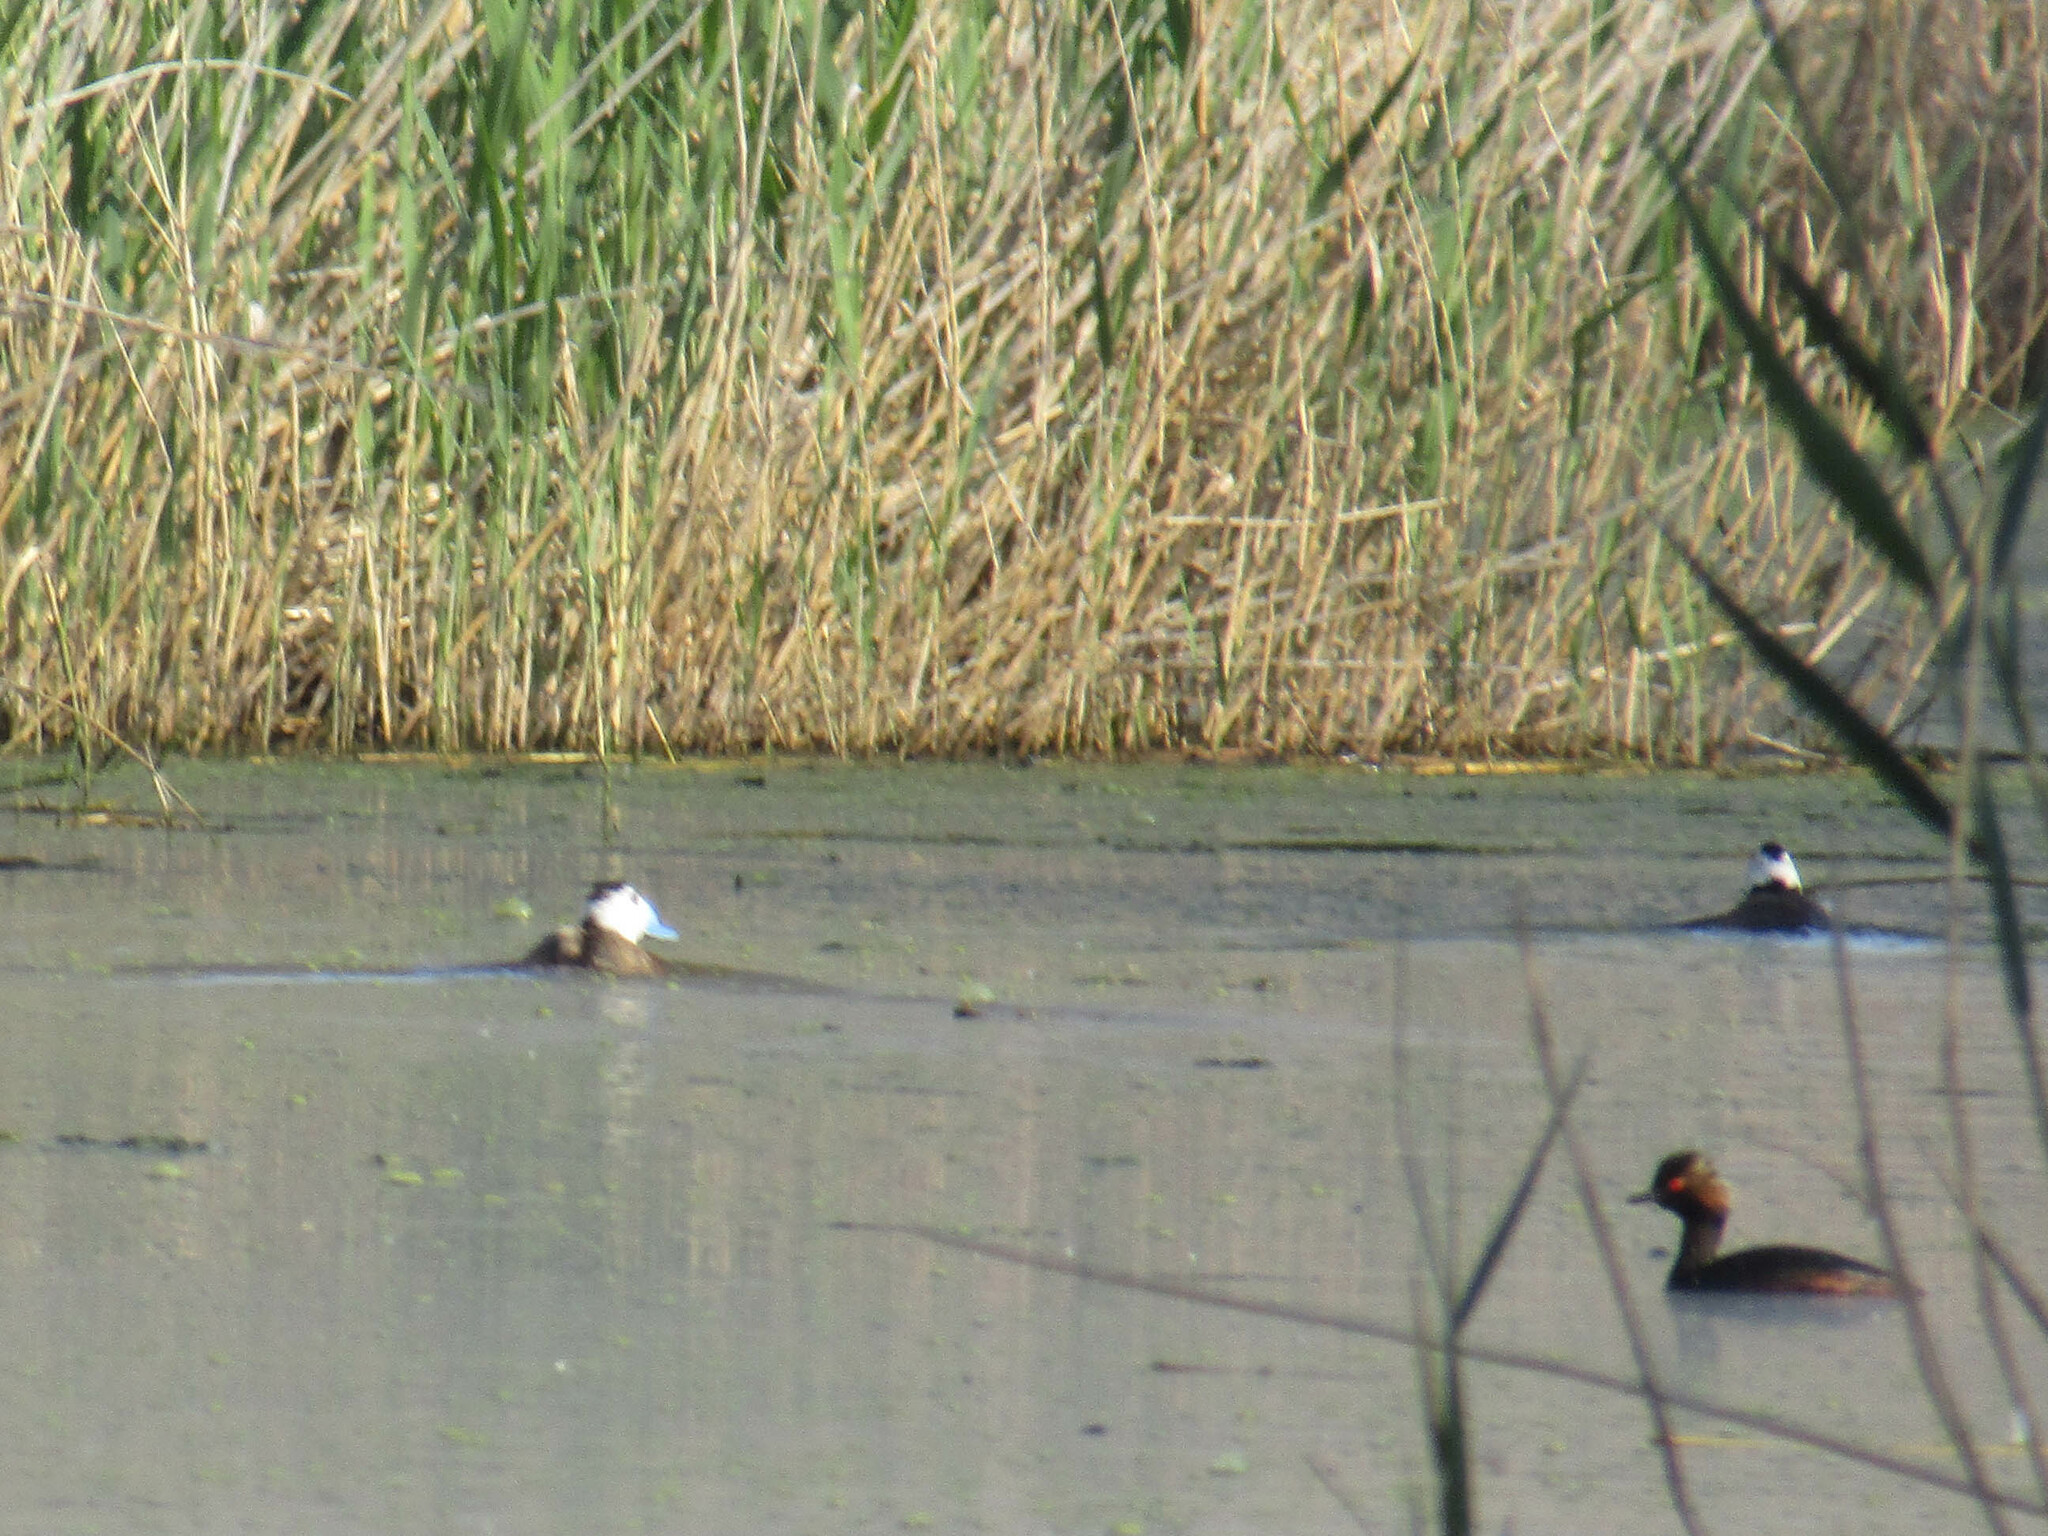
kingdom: Animalia
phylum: Chordata
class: Aves
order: Anseriformes
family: Anatidae
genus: Oxyura
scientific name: Oxyura leucocephala
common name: White-headed duck
